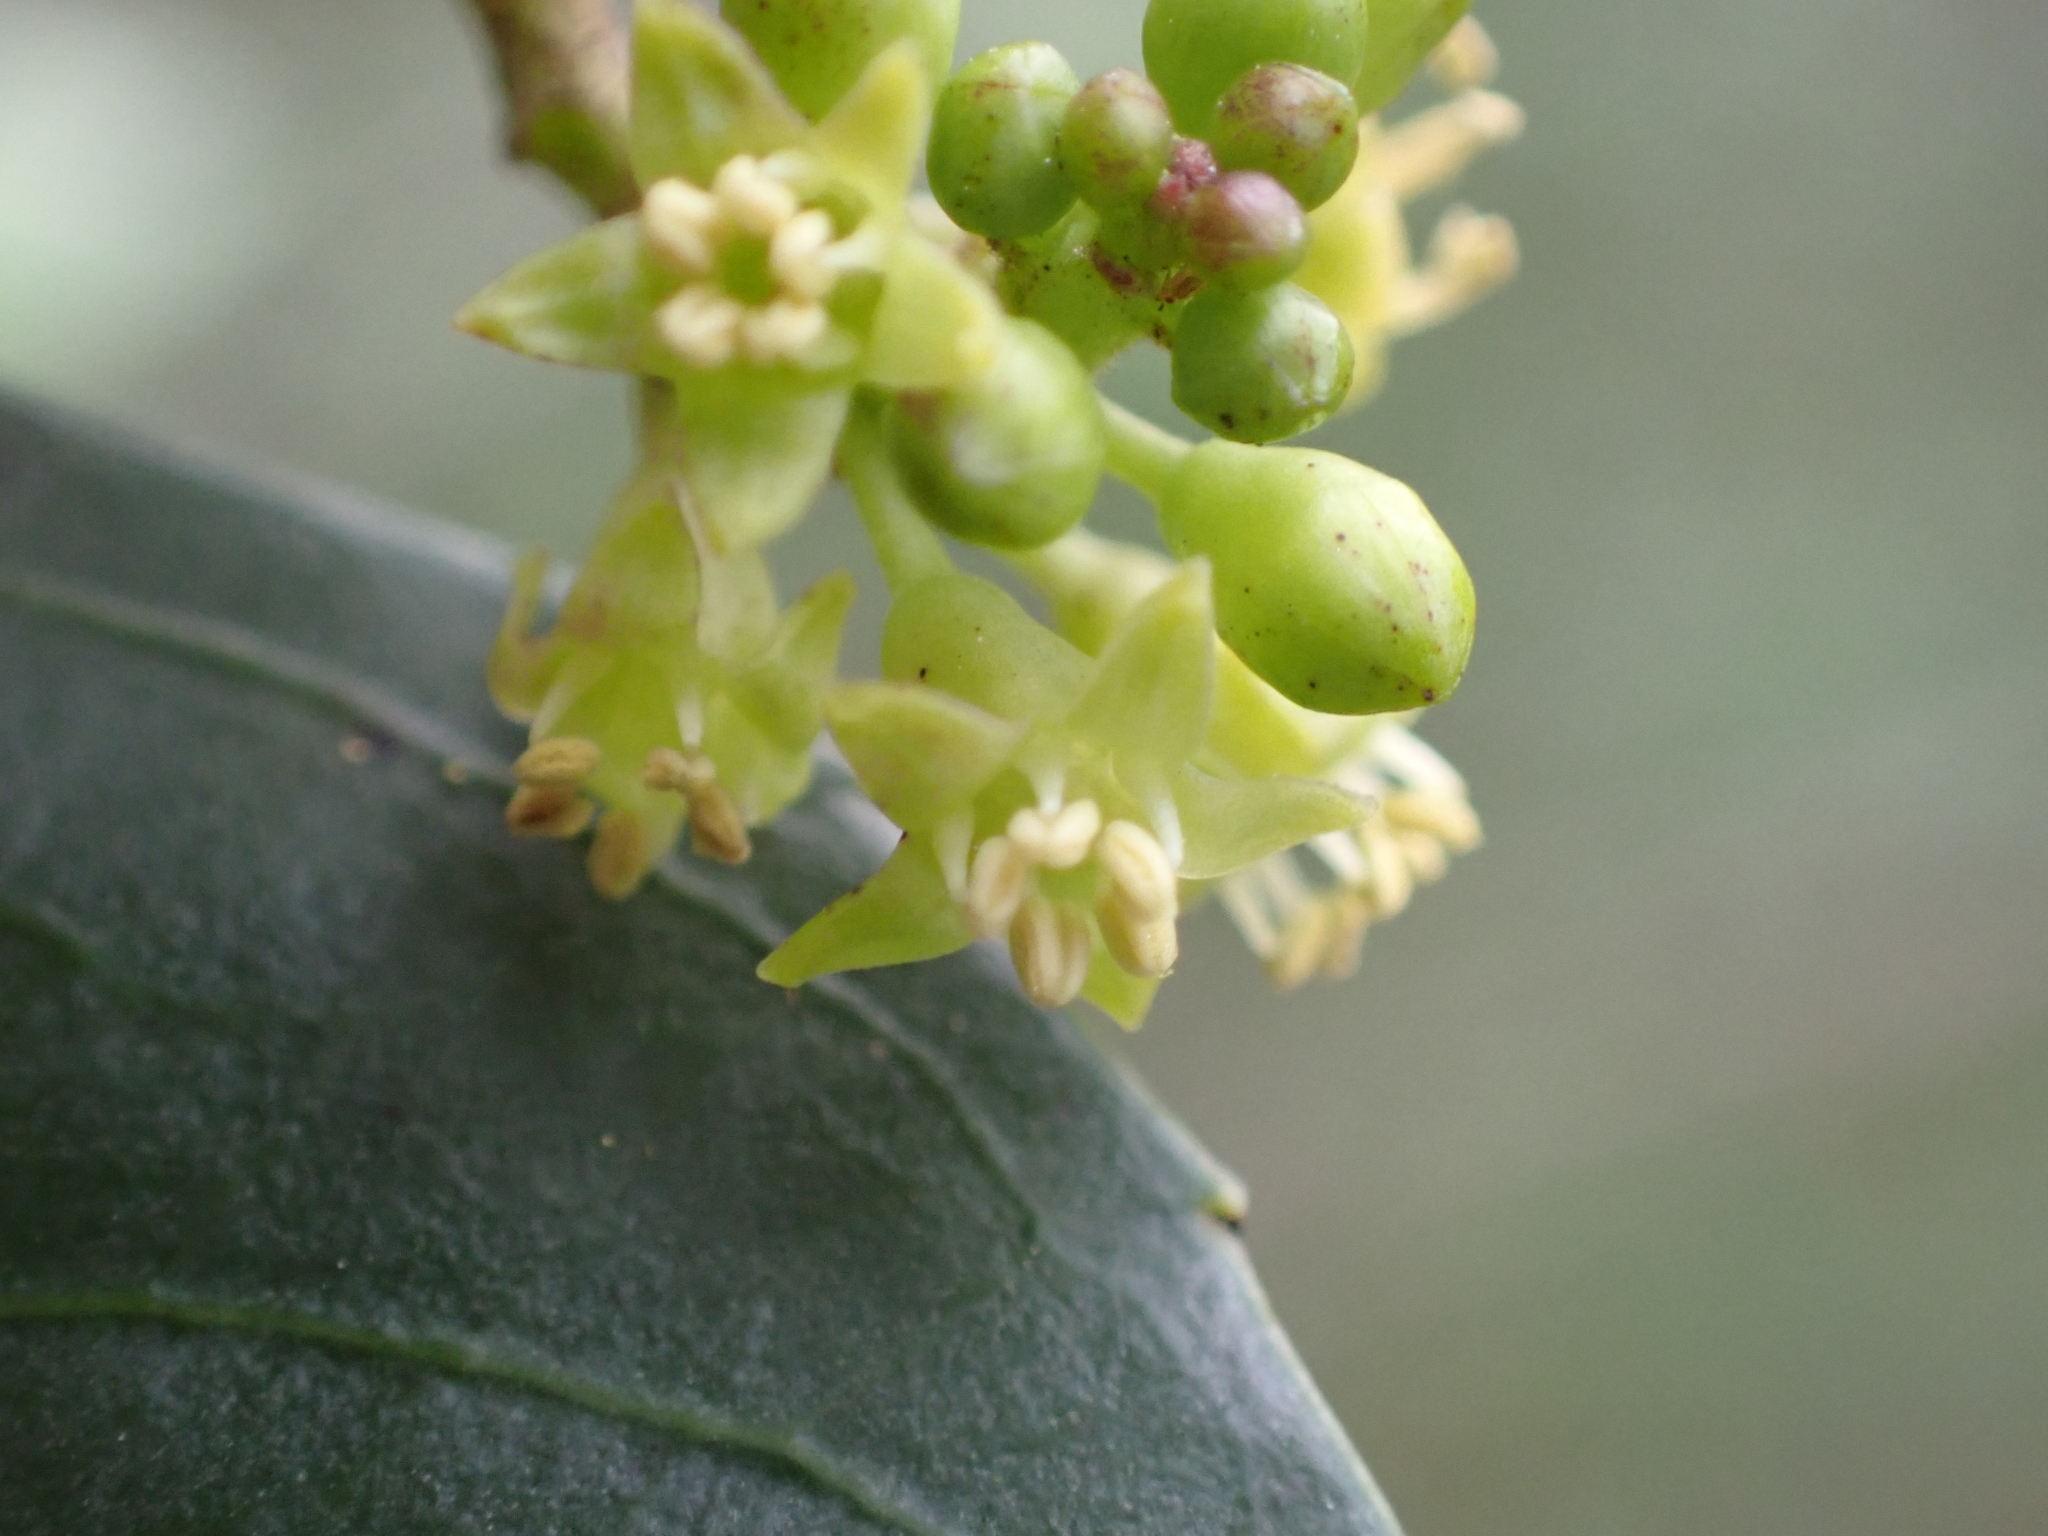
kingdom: Plantae
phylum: Tracheophyta
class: Magnoliopsida
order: Rosales
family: Rhamnaceae
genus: Rhamnus
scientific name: Rhamnus alaternus
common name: Mediterranean buckthorn
